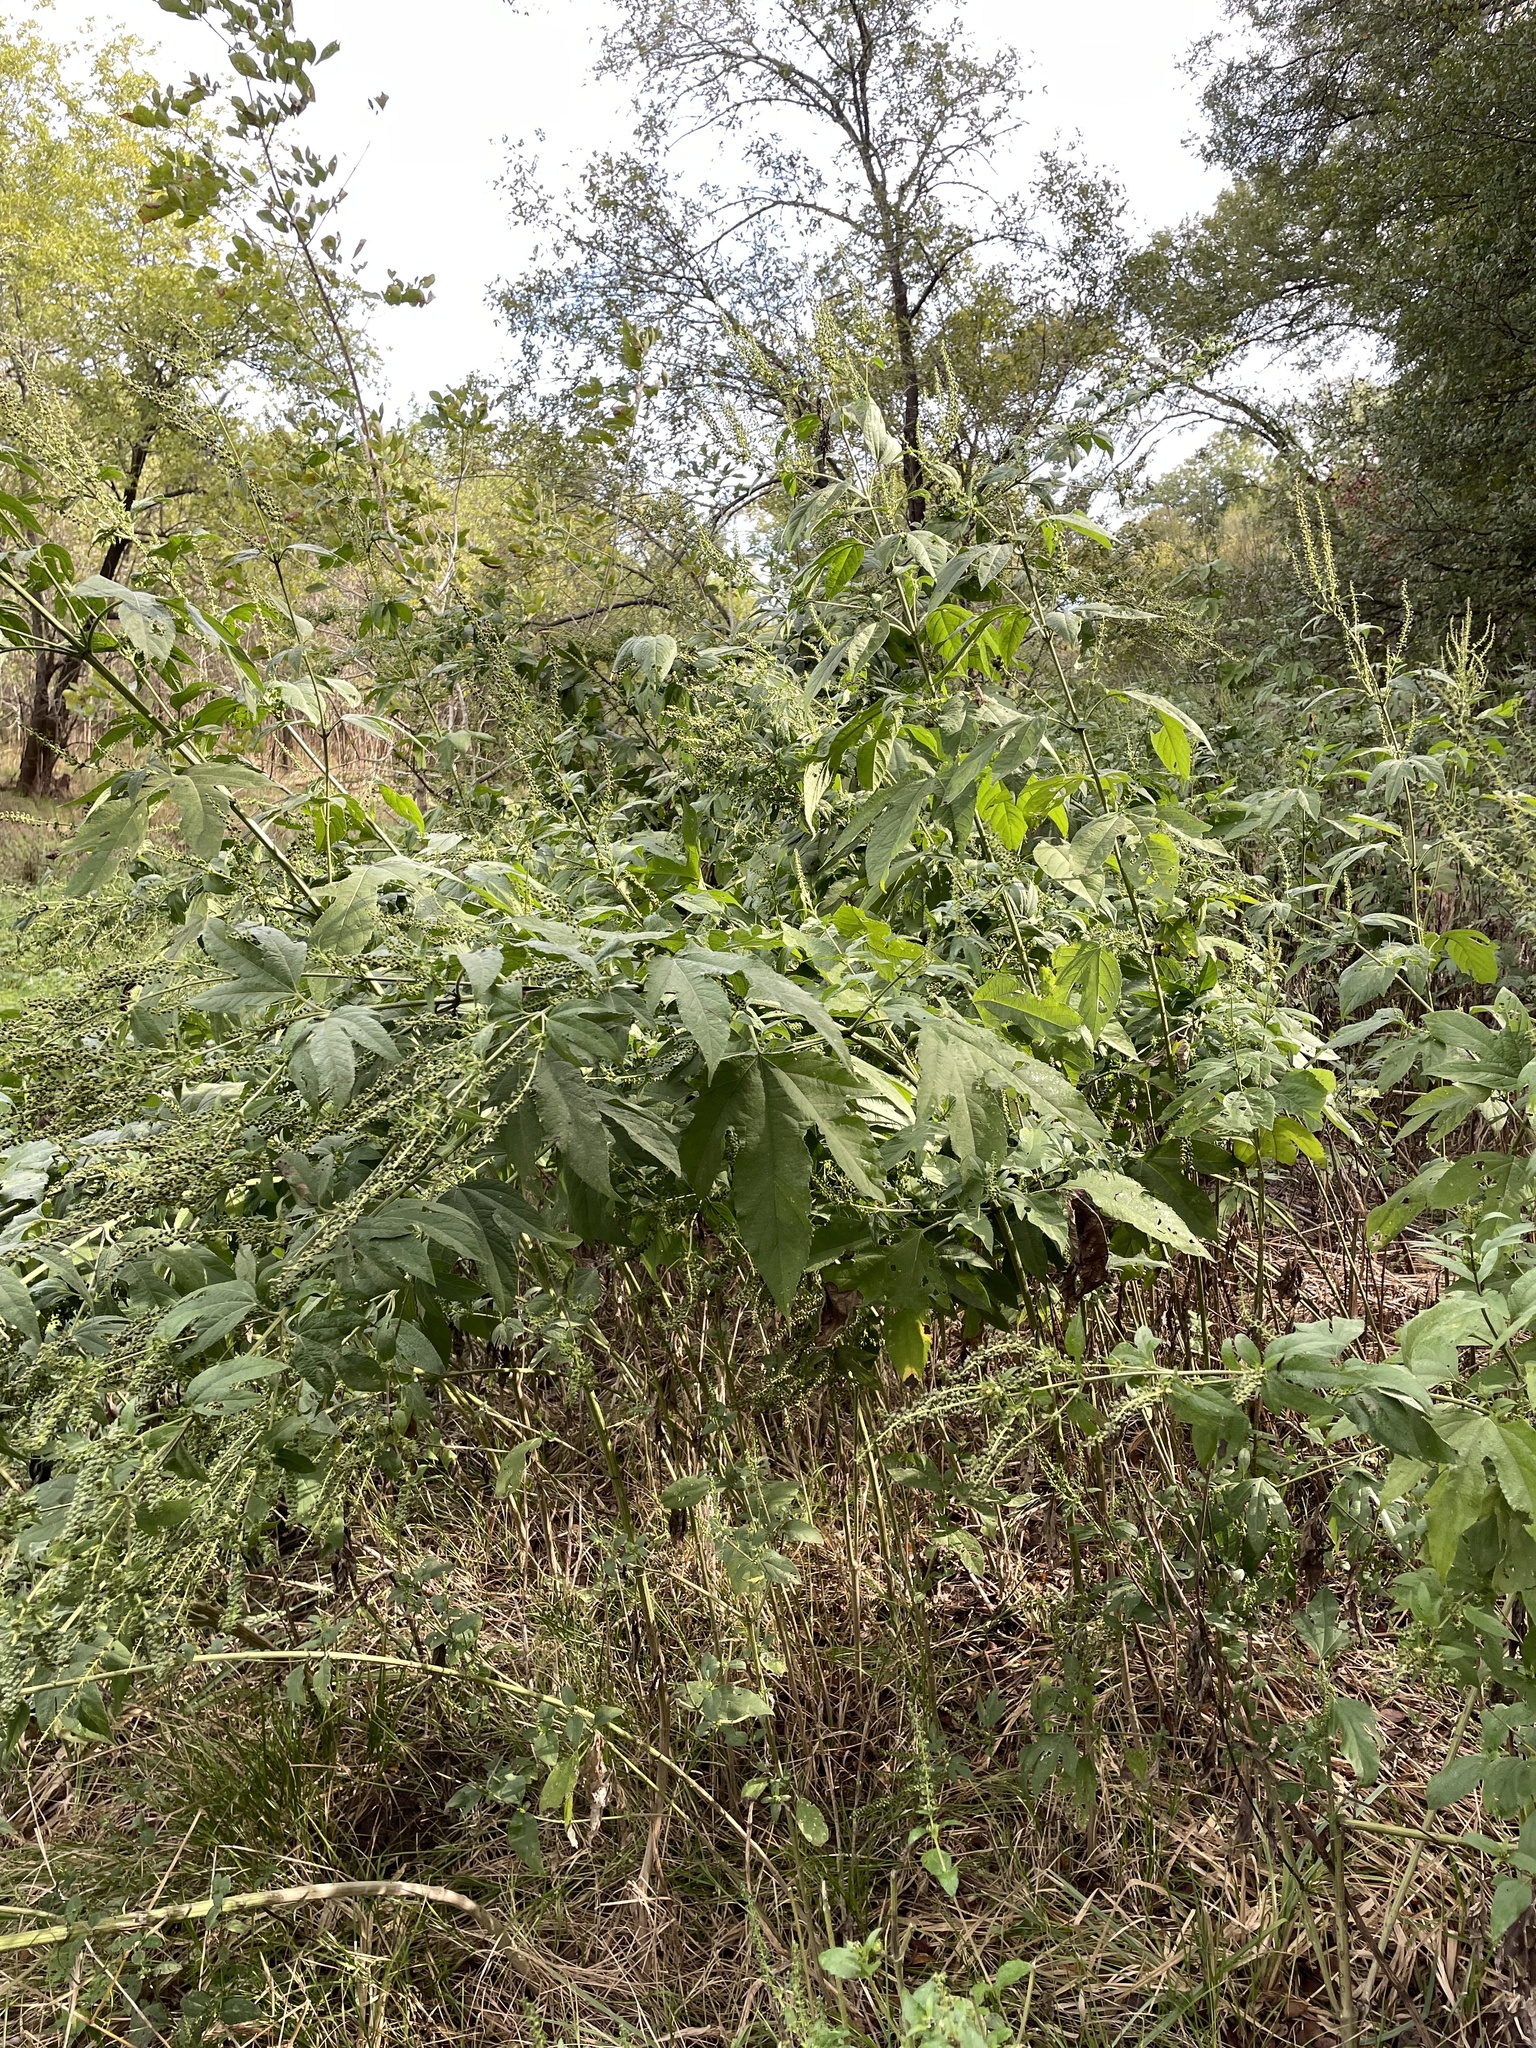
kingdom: Plantae
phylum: Tracheophyta
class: Magnoliopsida
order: Asterales
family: Asteraceae
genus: Ambrosia
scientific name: Ambrosia trifida
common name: Giant ragweed
